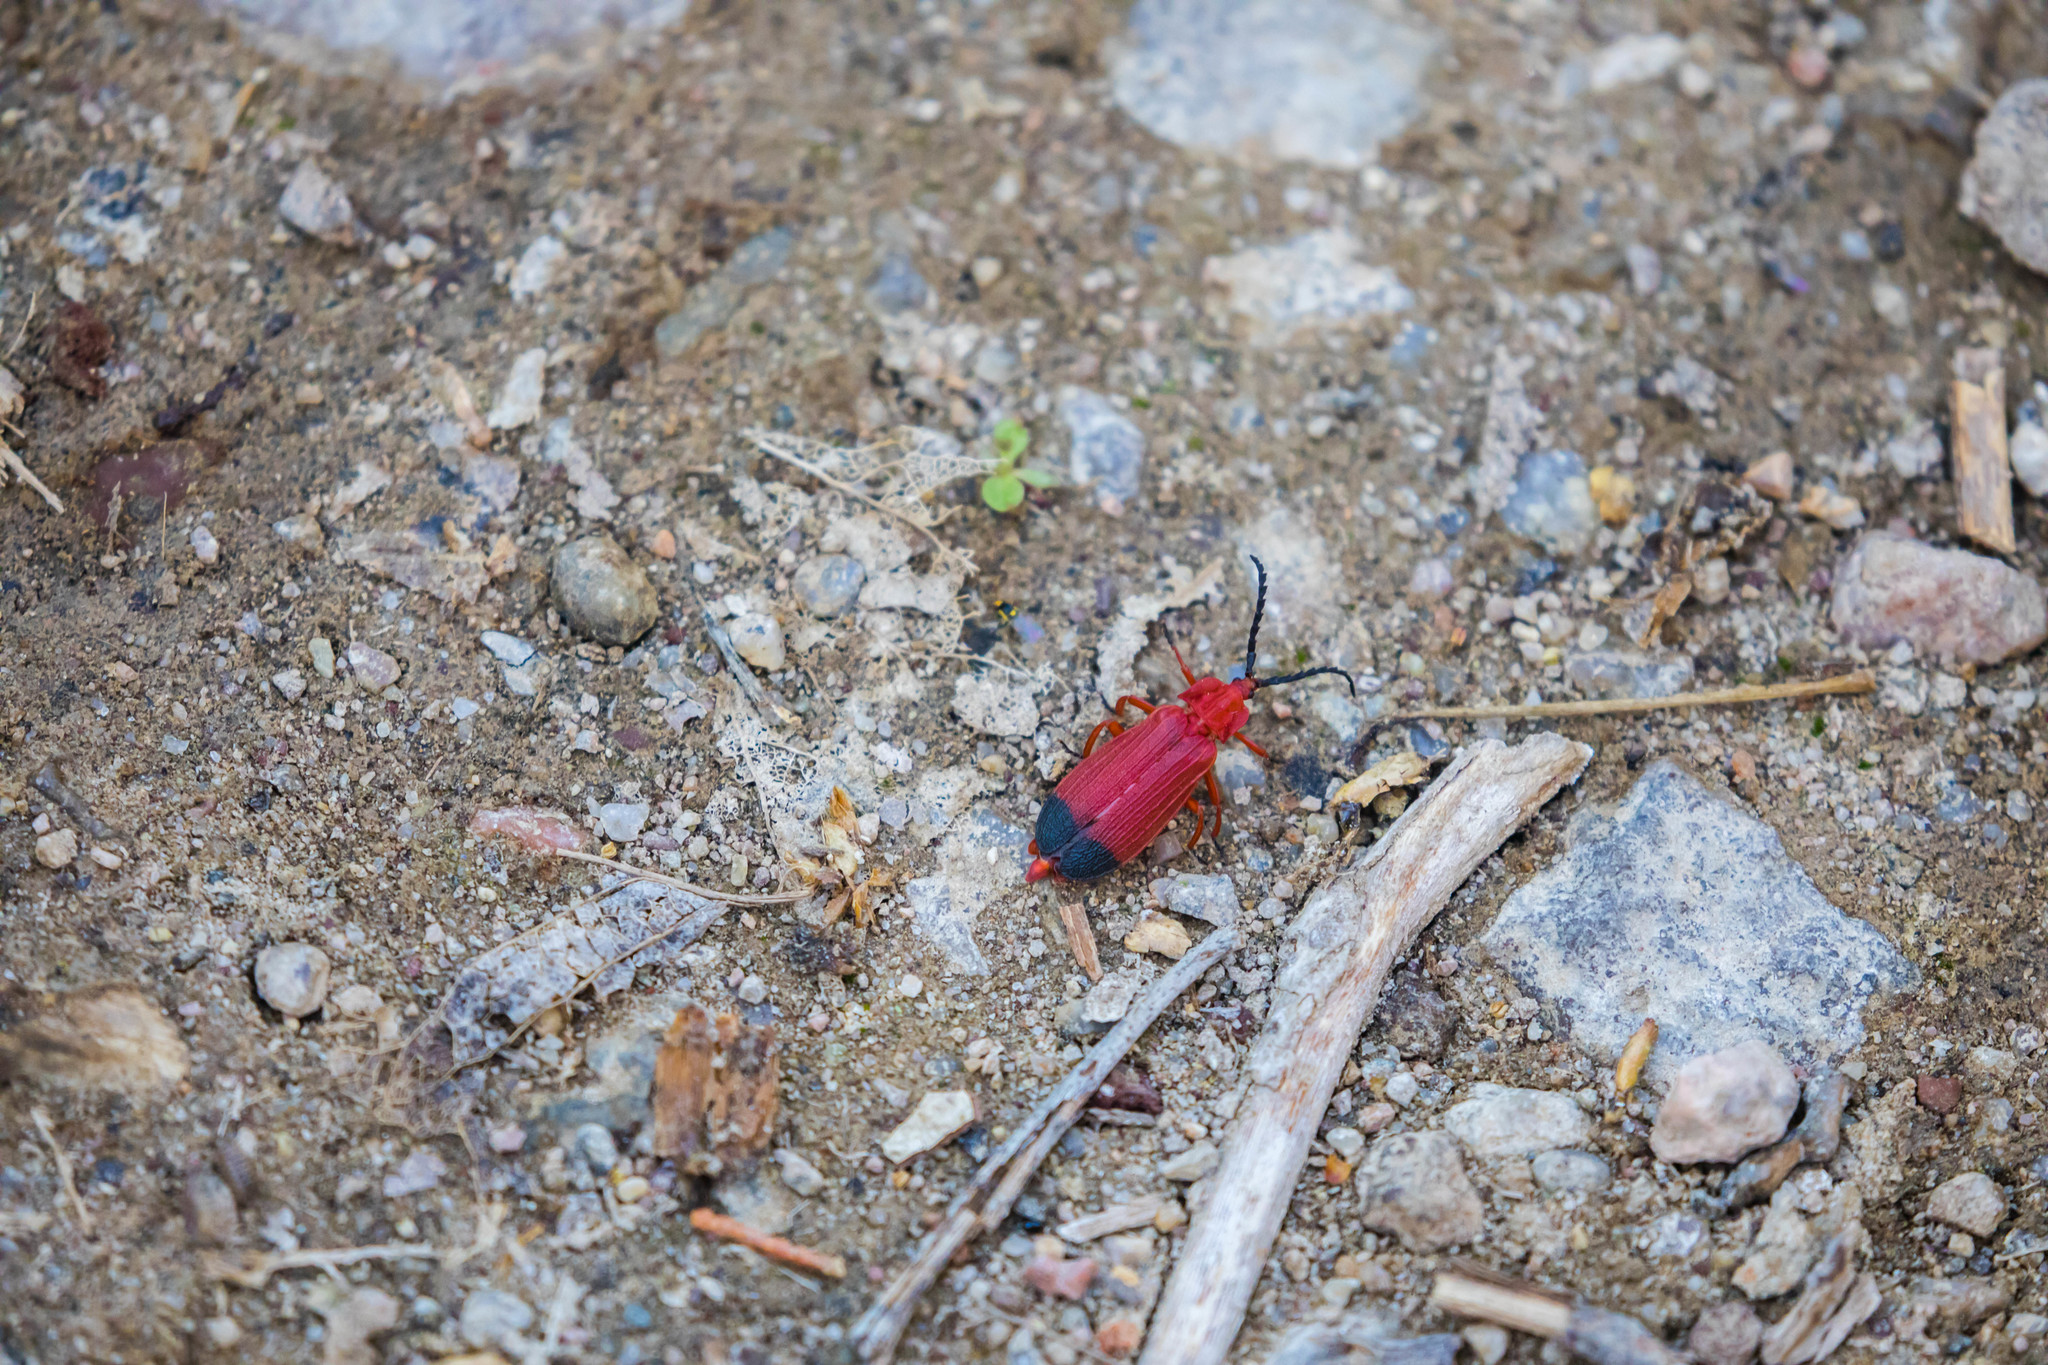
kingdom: Animalia
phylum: Arthropoda
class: Insecta
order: Coleoptera
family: Lycidae
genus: Lycus
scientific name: Lycus sanguineus
